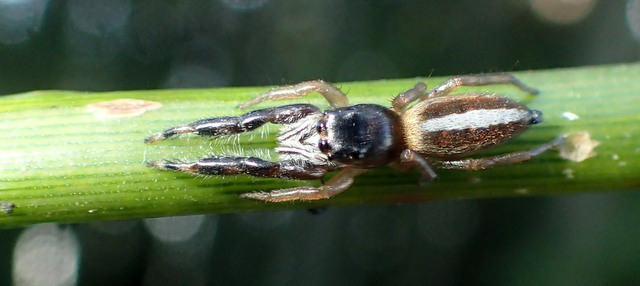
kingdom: Animalia
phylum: Arthropoda
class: Arachnida
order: Araneae
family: Salticidae
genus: Marpissa
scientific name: Marpissa bina
